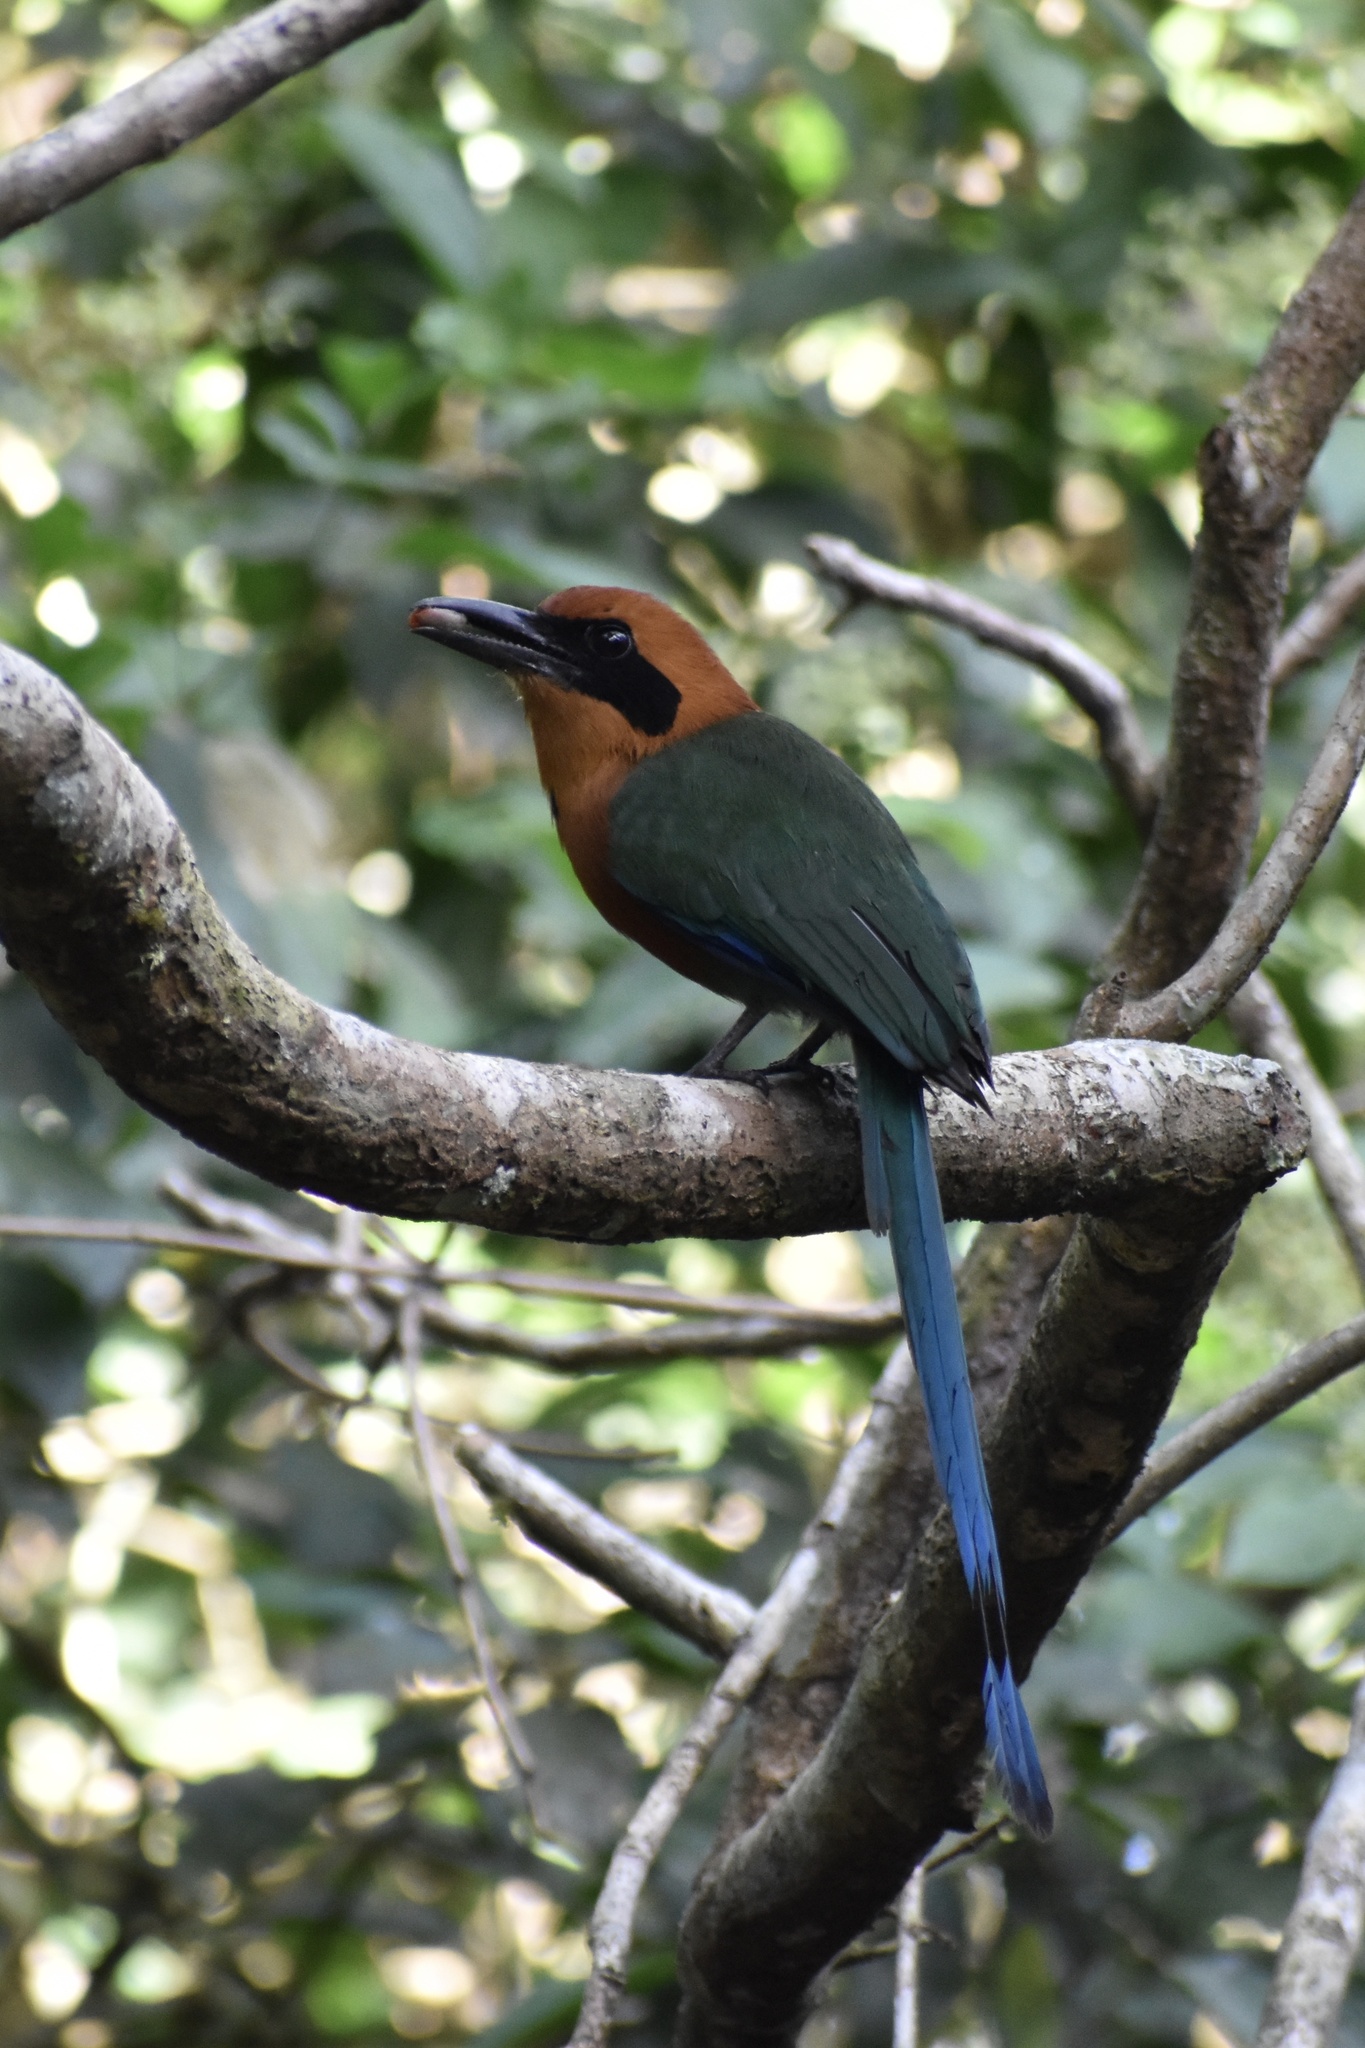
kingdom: Animalia
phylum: Chordata
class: Aves
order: Coraciiformes
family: Momotidae
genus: Baryphthengus
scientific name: Baryphthengus martii
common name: Rufous motmot
